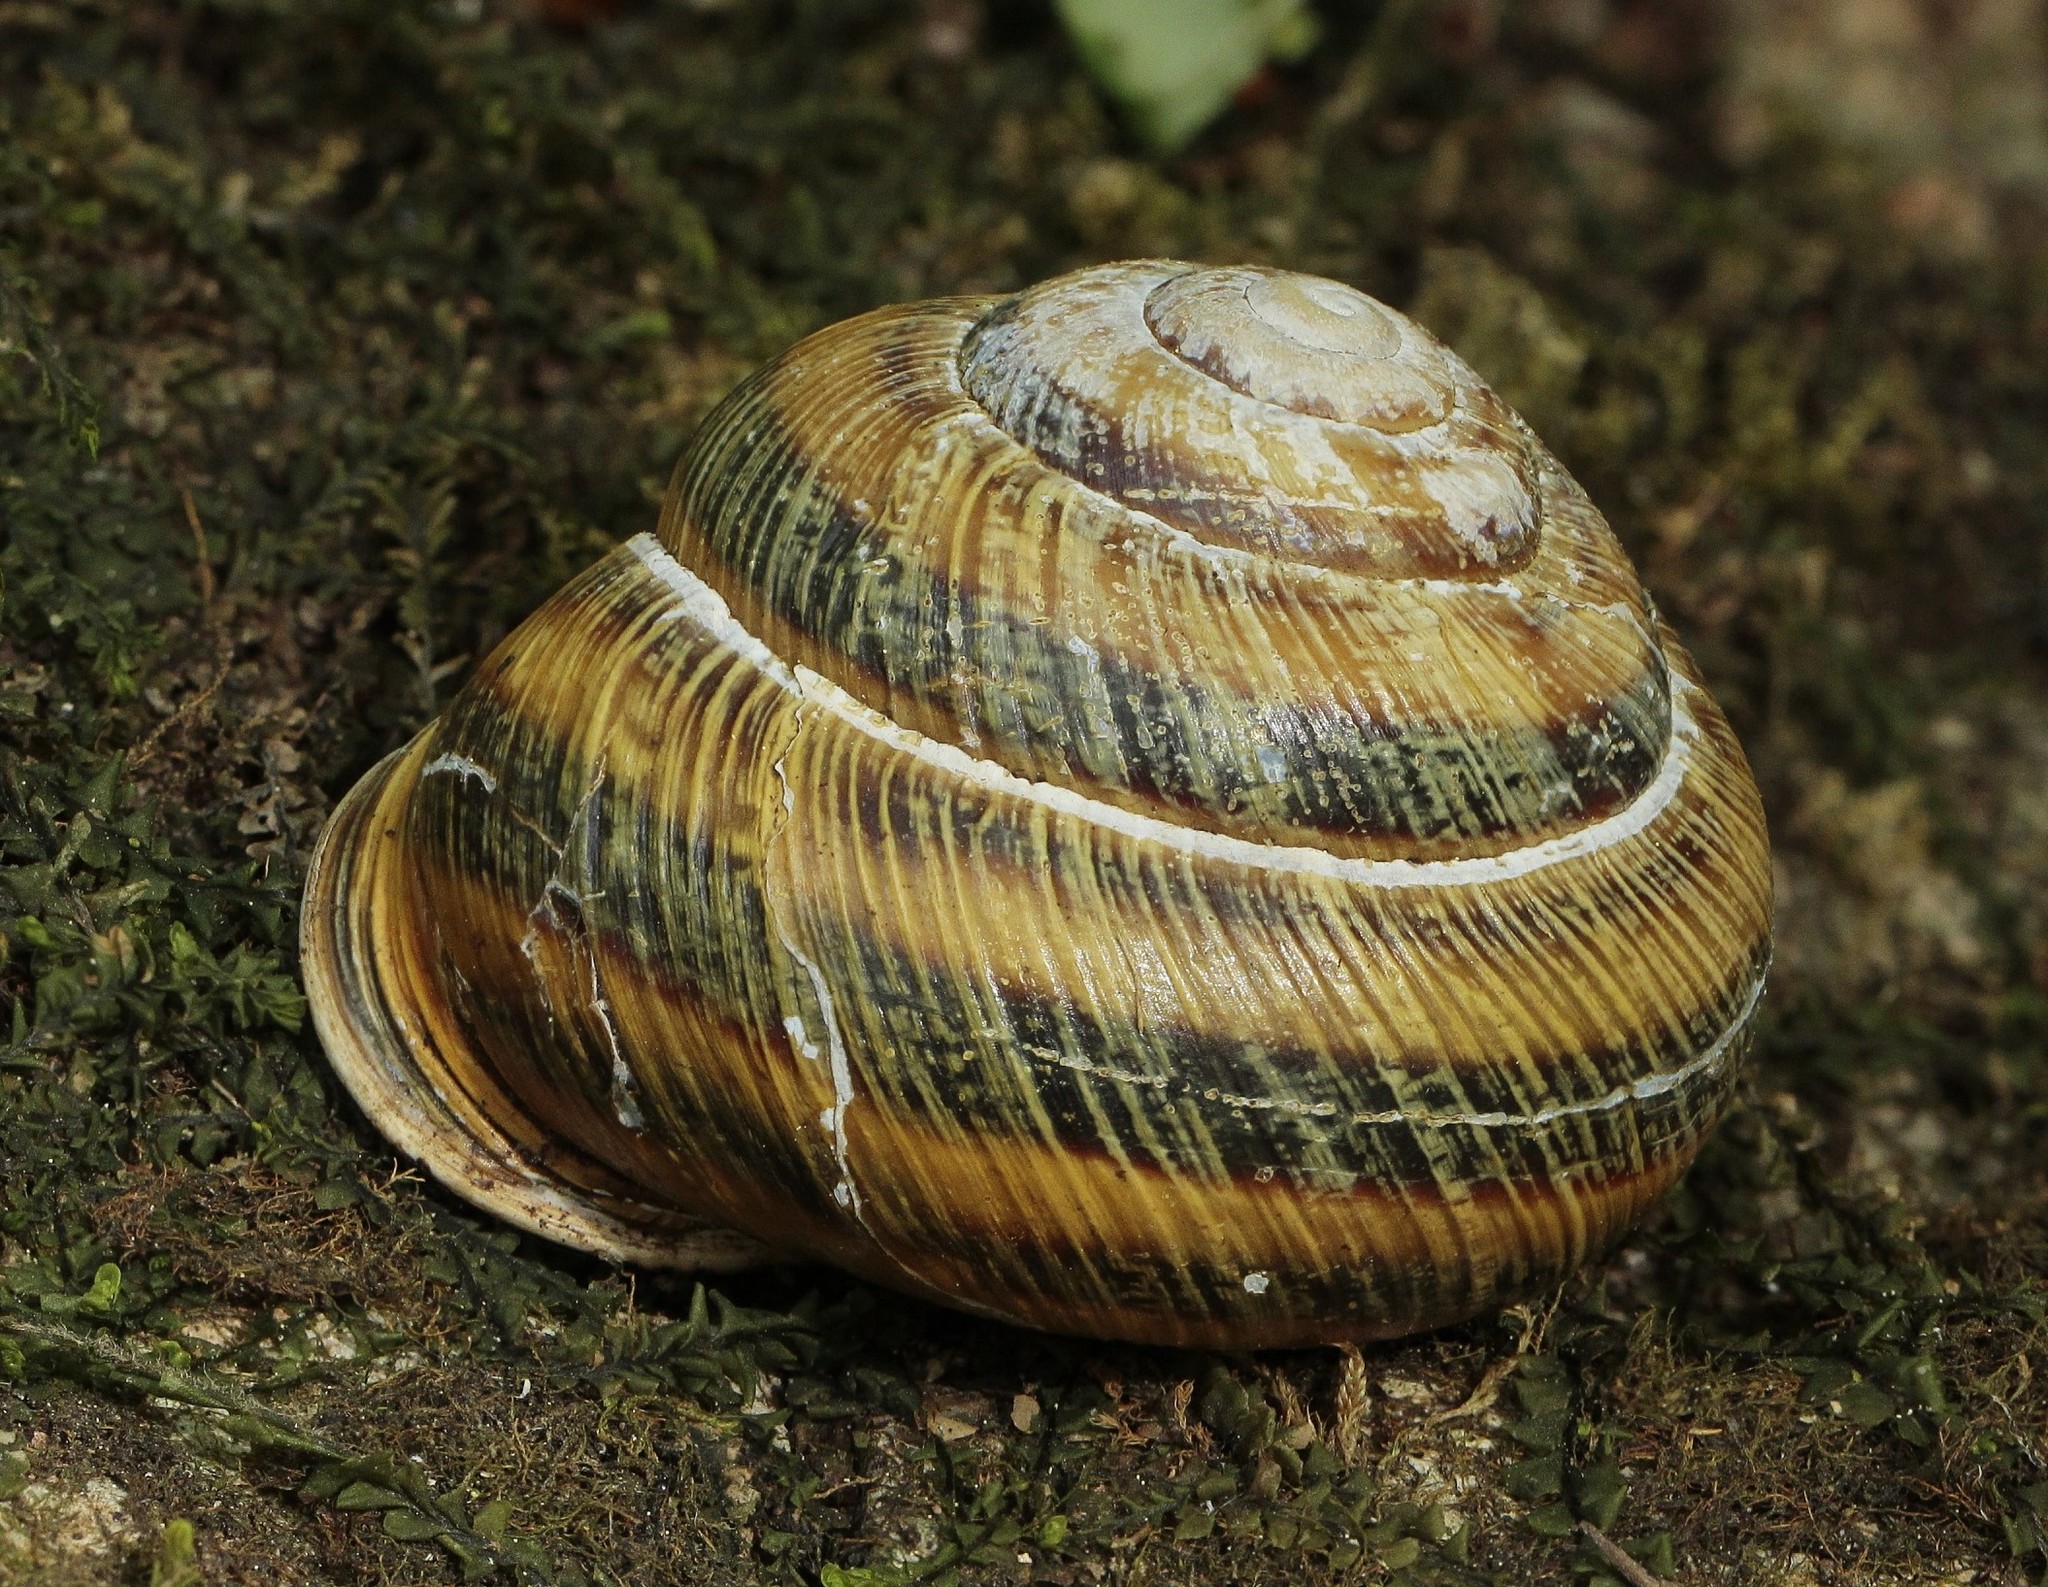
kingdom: Animalia
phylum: Mollusca
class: Gastropoda
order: Stylommatophora
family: Helicidae
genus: Caucasotachea
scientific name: Caucasotachea atrolabiata
